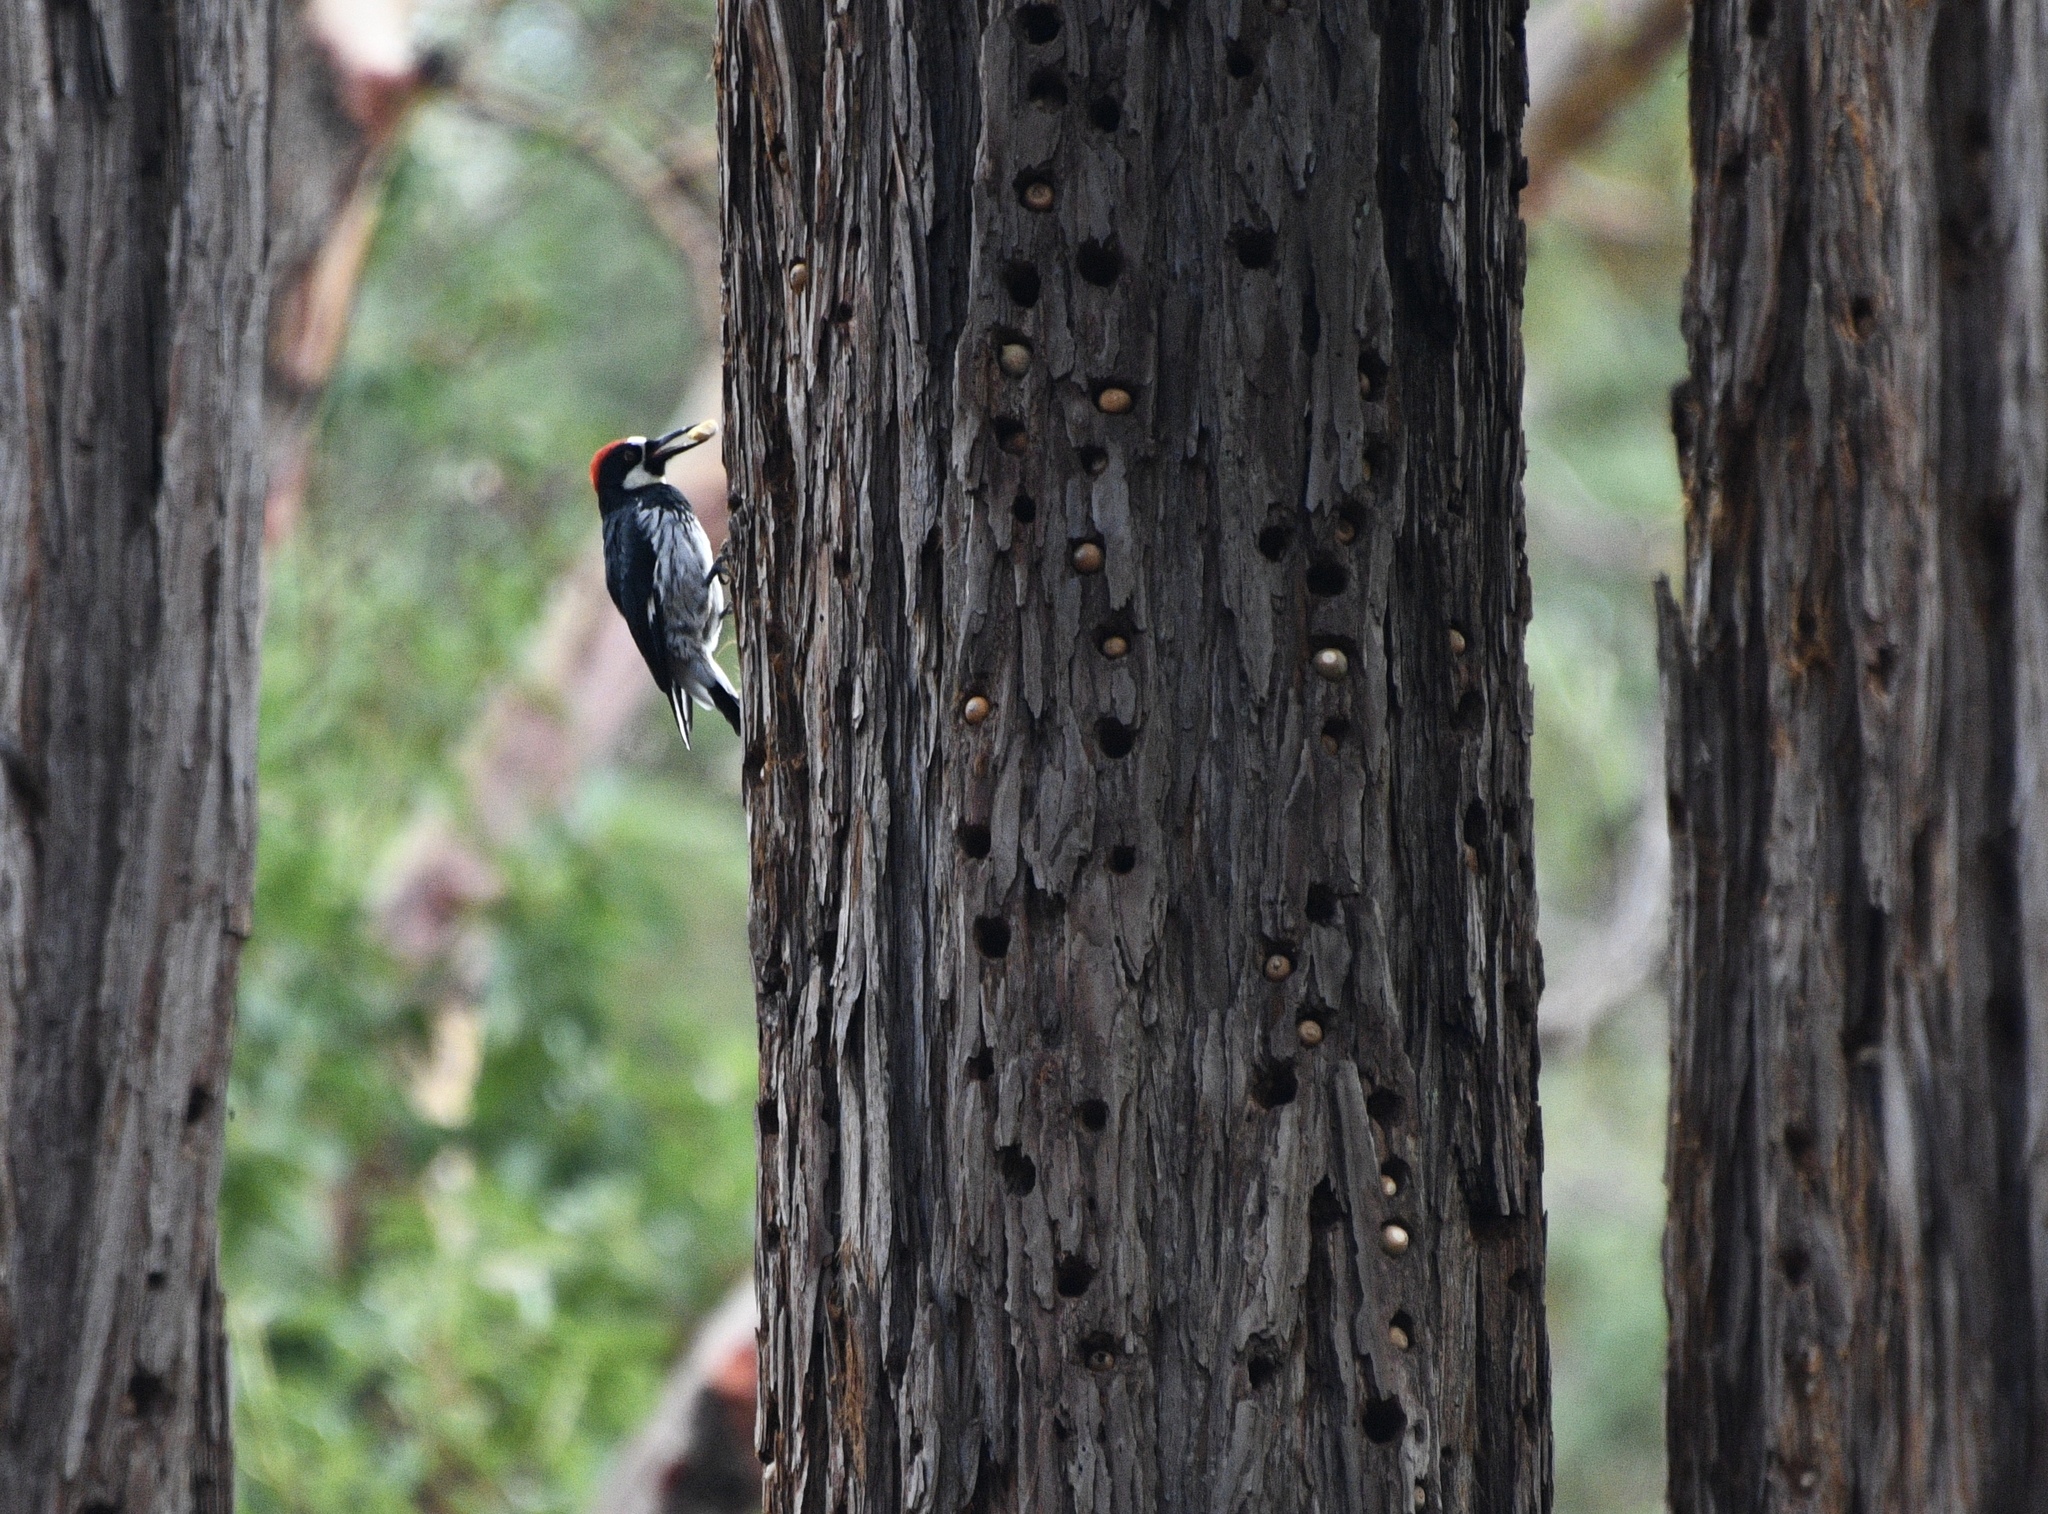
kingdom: Animalia
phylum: Chordata
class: Aves
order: Piciformes
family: Picidae
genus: Melanerpes
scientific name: Melanerpes formicivorus
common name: Acorn woodpecker
